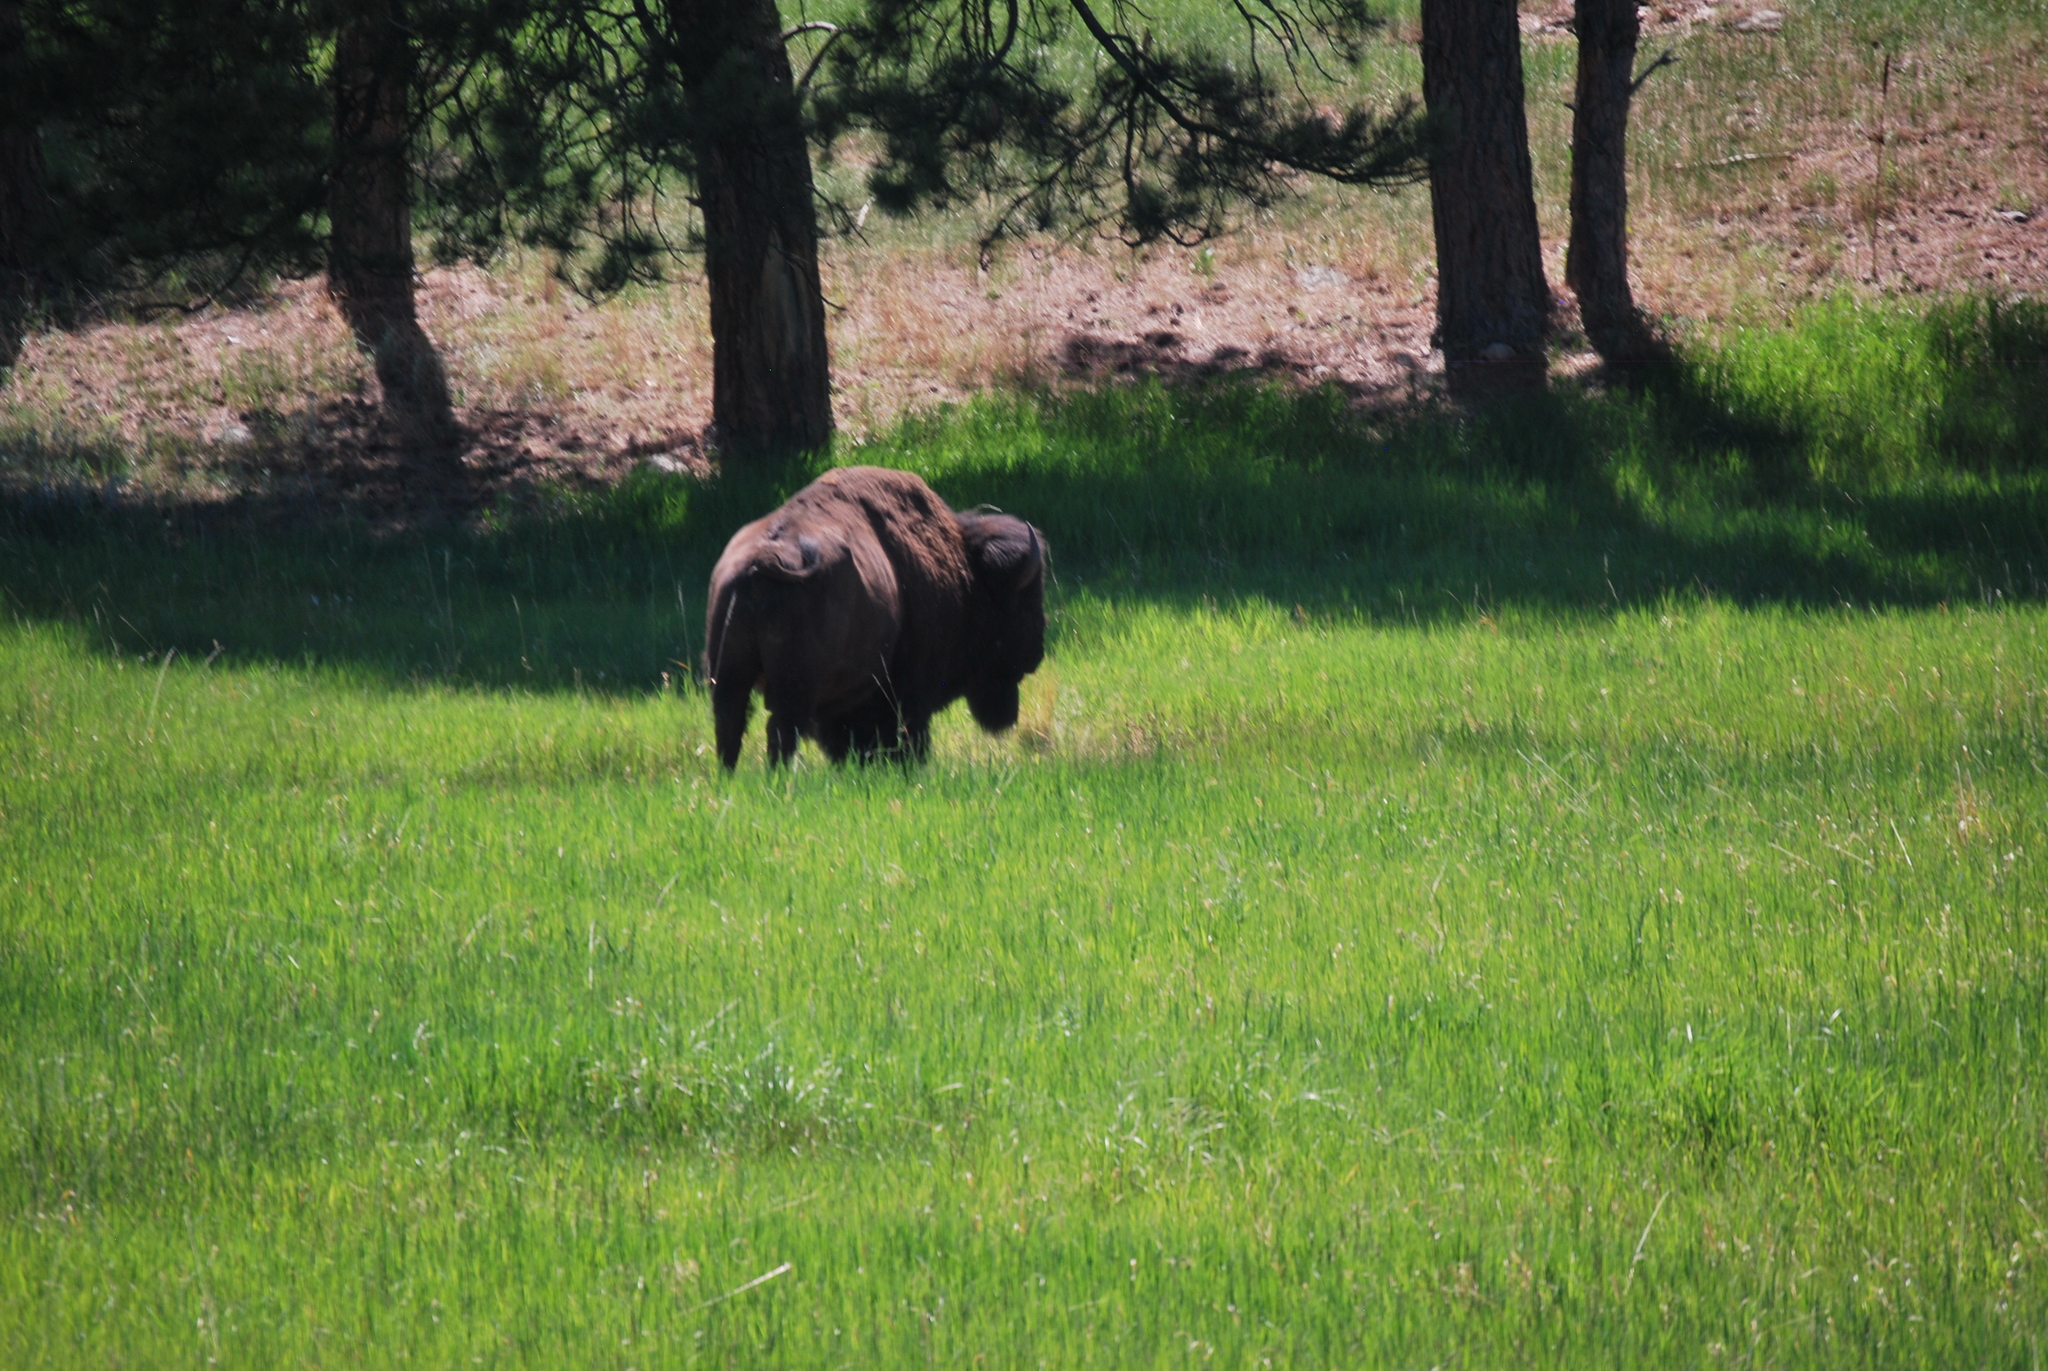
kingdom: Animalia
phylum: Chordata
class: Mammalia
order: Artiodactyla
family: Bovidae
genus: Bison
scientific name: Bison bison
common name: American bison
